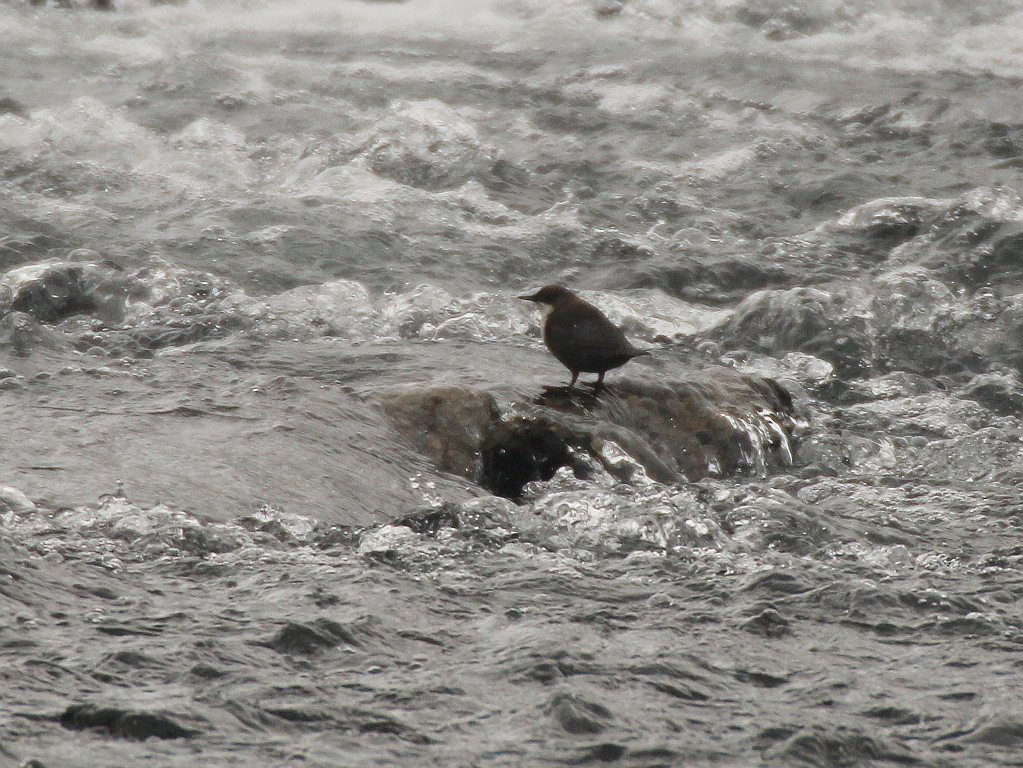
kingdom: Animalia
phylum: Chordata
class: Aves
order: Passeriformes
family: Cinclidae
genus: Cinclus
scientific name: Cinclus cinclus
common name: White-throated dipper
